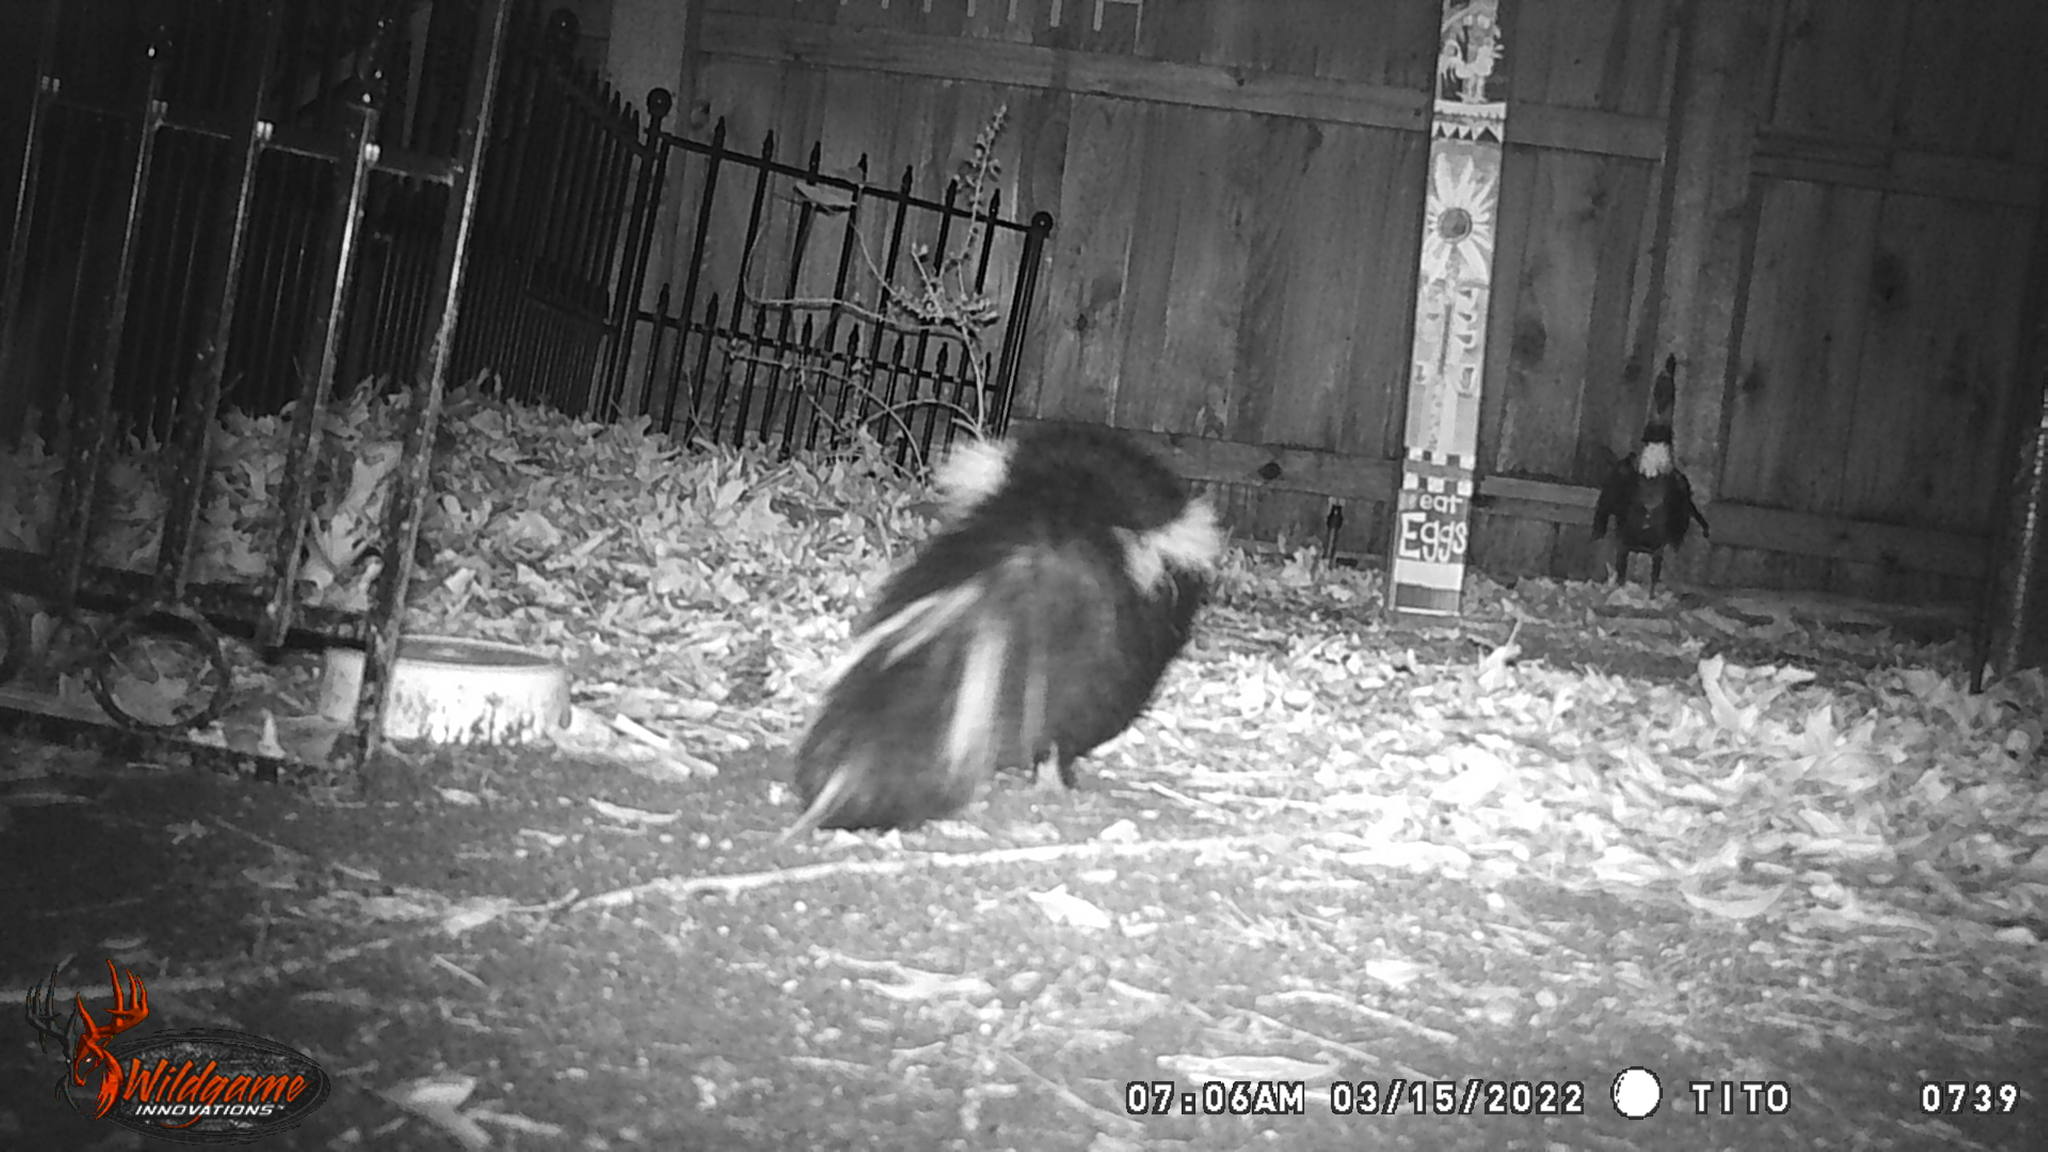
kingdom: Animalia
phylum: Chordata
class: Mammalia
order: Carnivora
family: Mephitidae
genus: Mephitis
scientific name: Mephitis mephitis
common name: Striped skunk
